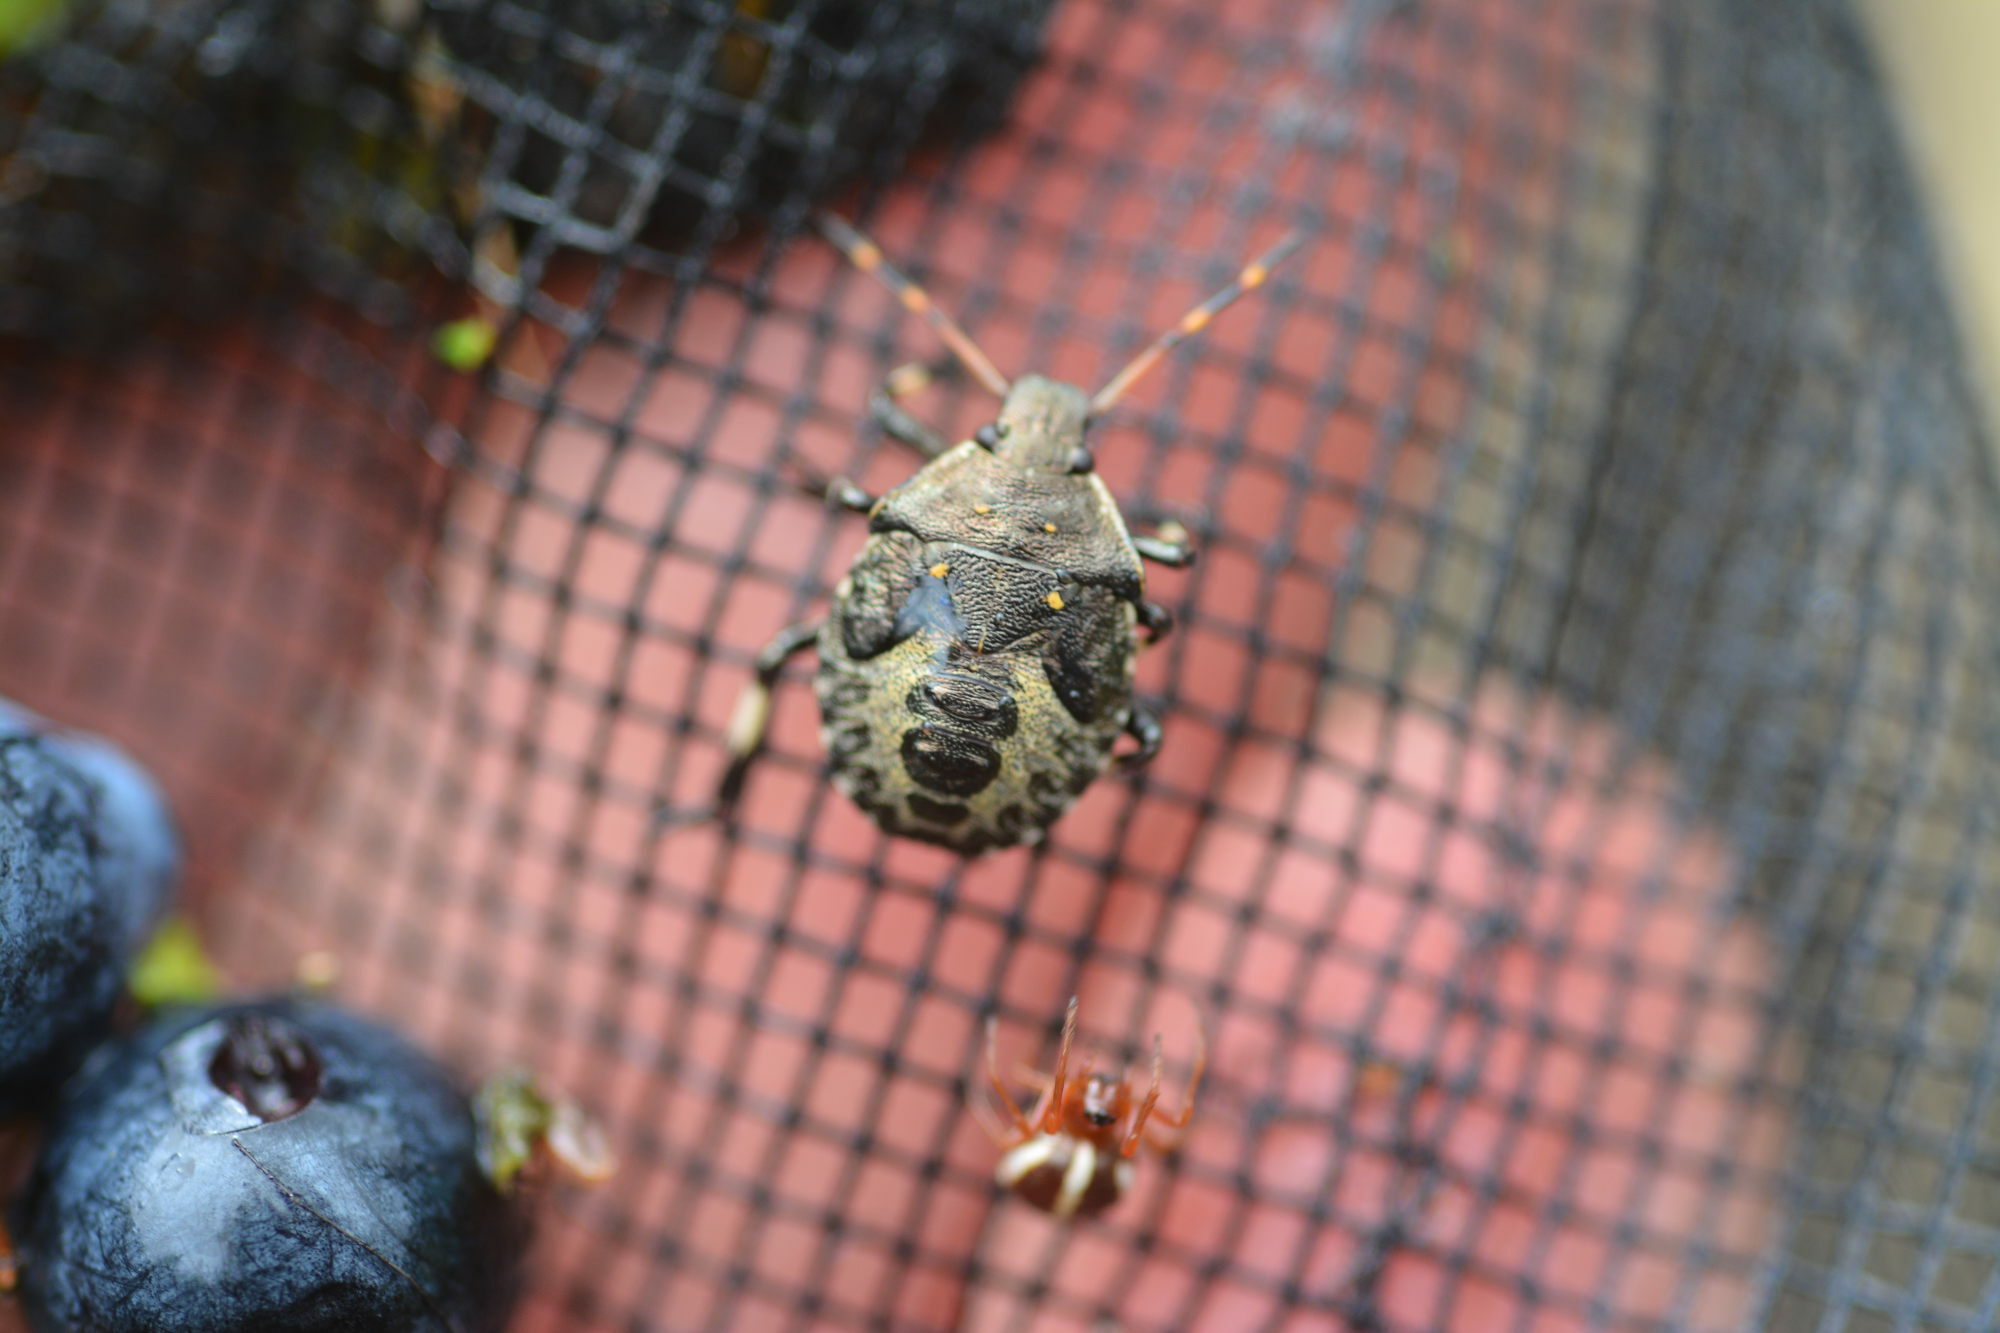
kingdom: Animalia
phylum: Arthropoda
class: Insecta
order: Hemiptera
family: Pentatomidae
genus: Picromerus
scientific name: Picromerus bidens
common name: Spiked shieldbug
